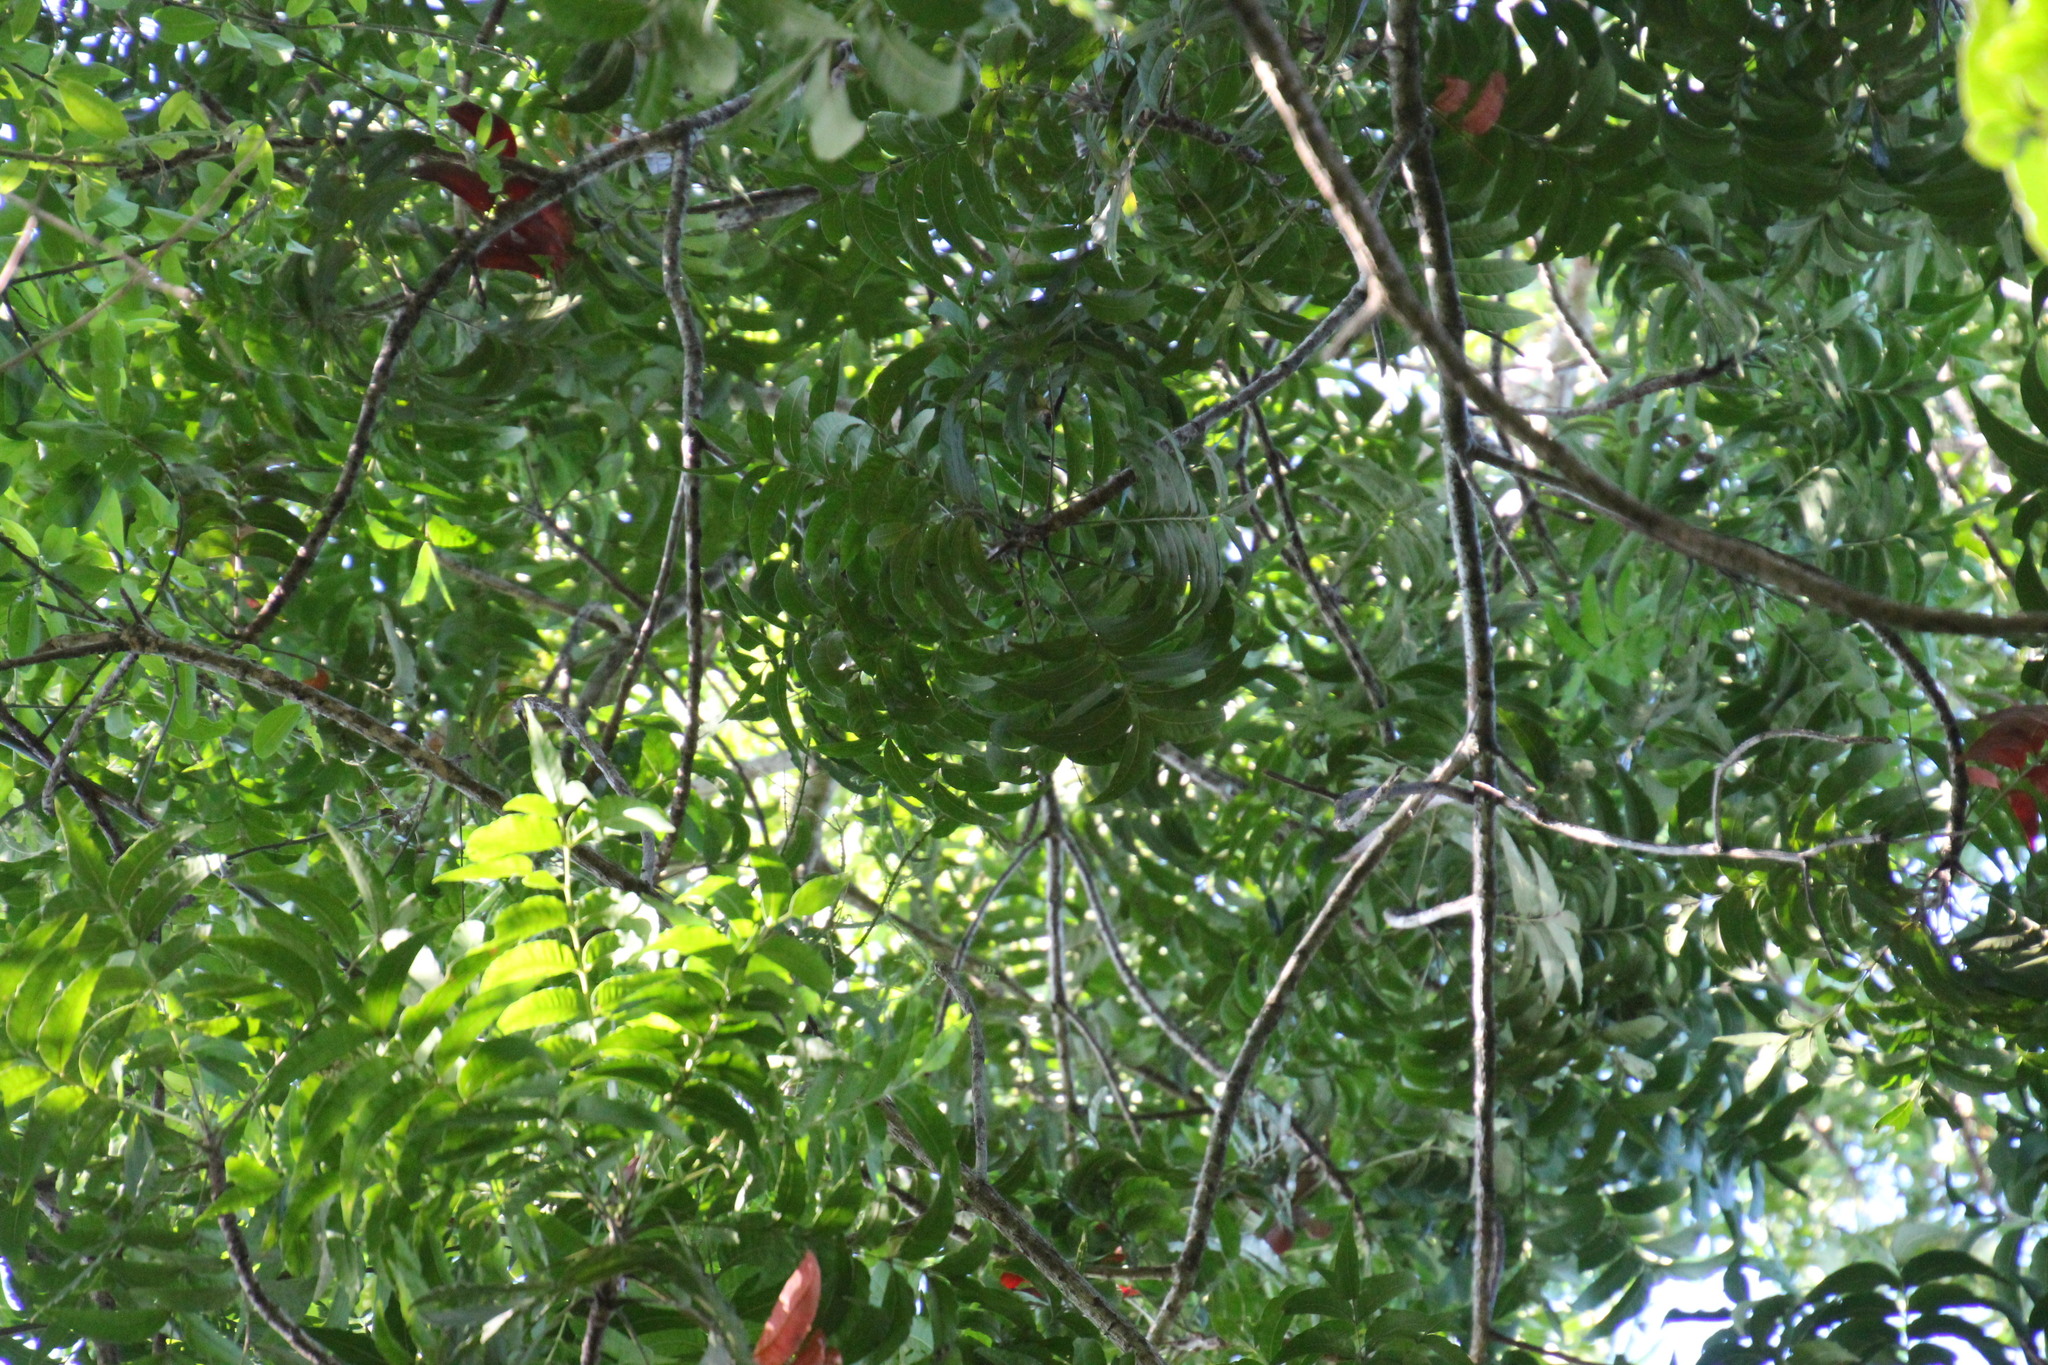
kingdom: Plantae
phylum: Tracheophyta
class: Magnoliopsida
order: Sapindales
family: Anacardiaceae
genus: Harpephyllum
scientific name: Harpephyllum caffrum
